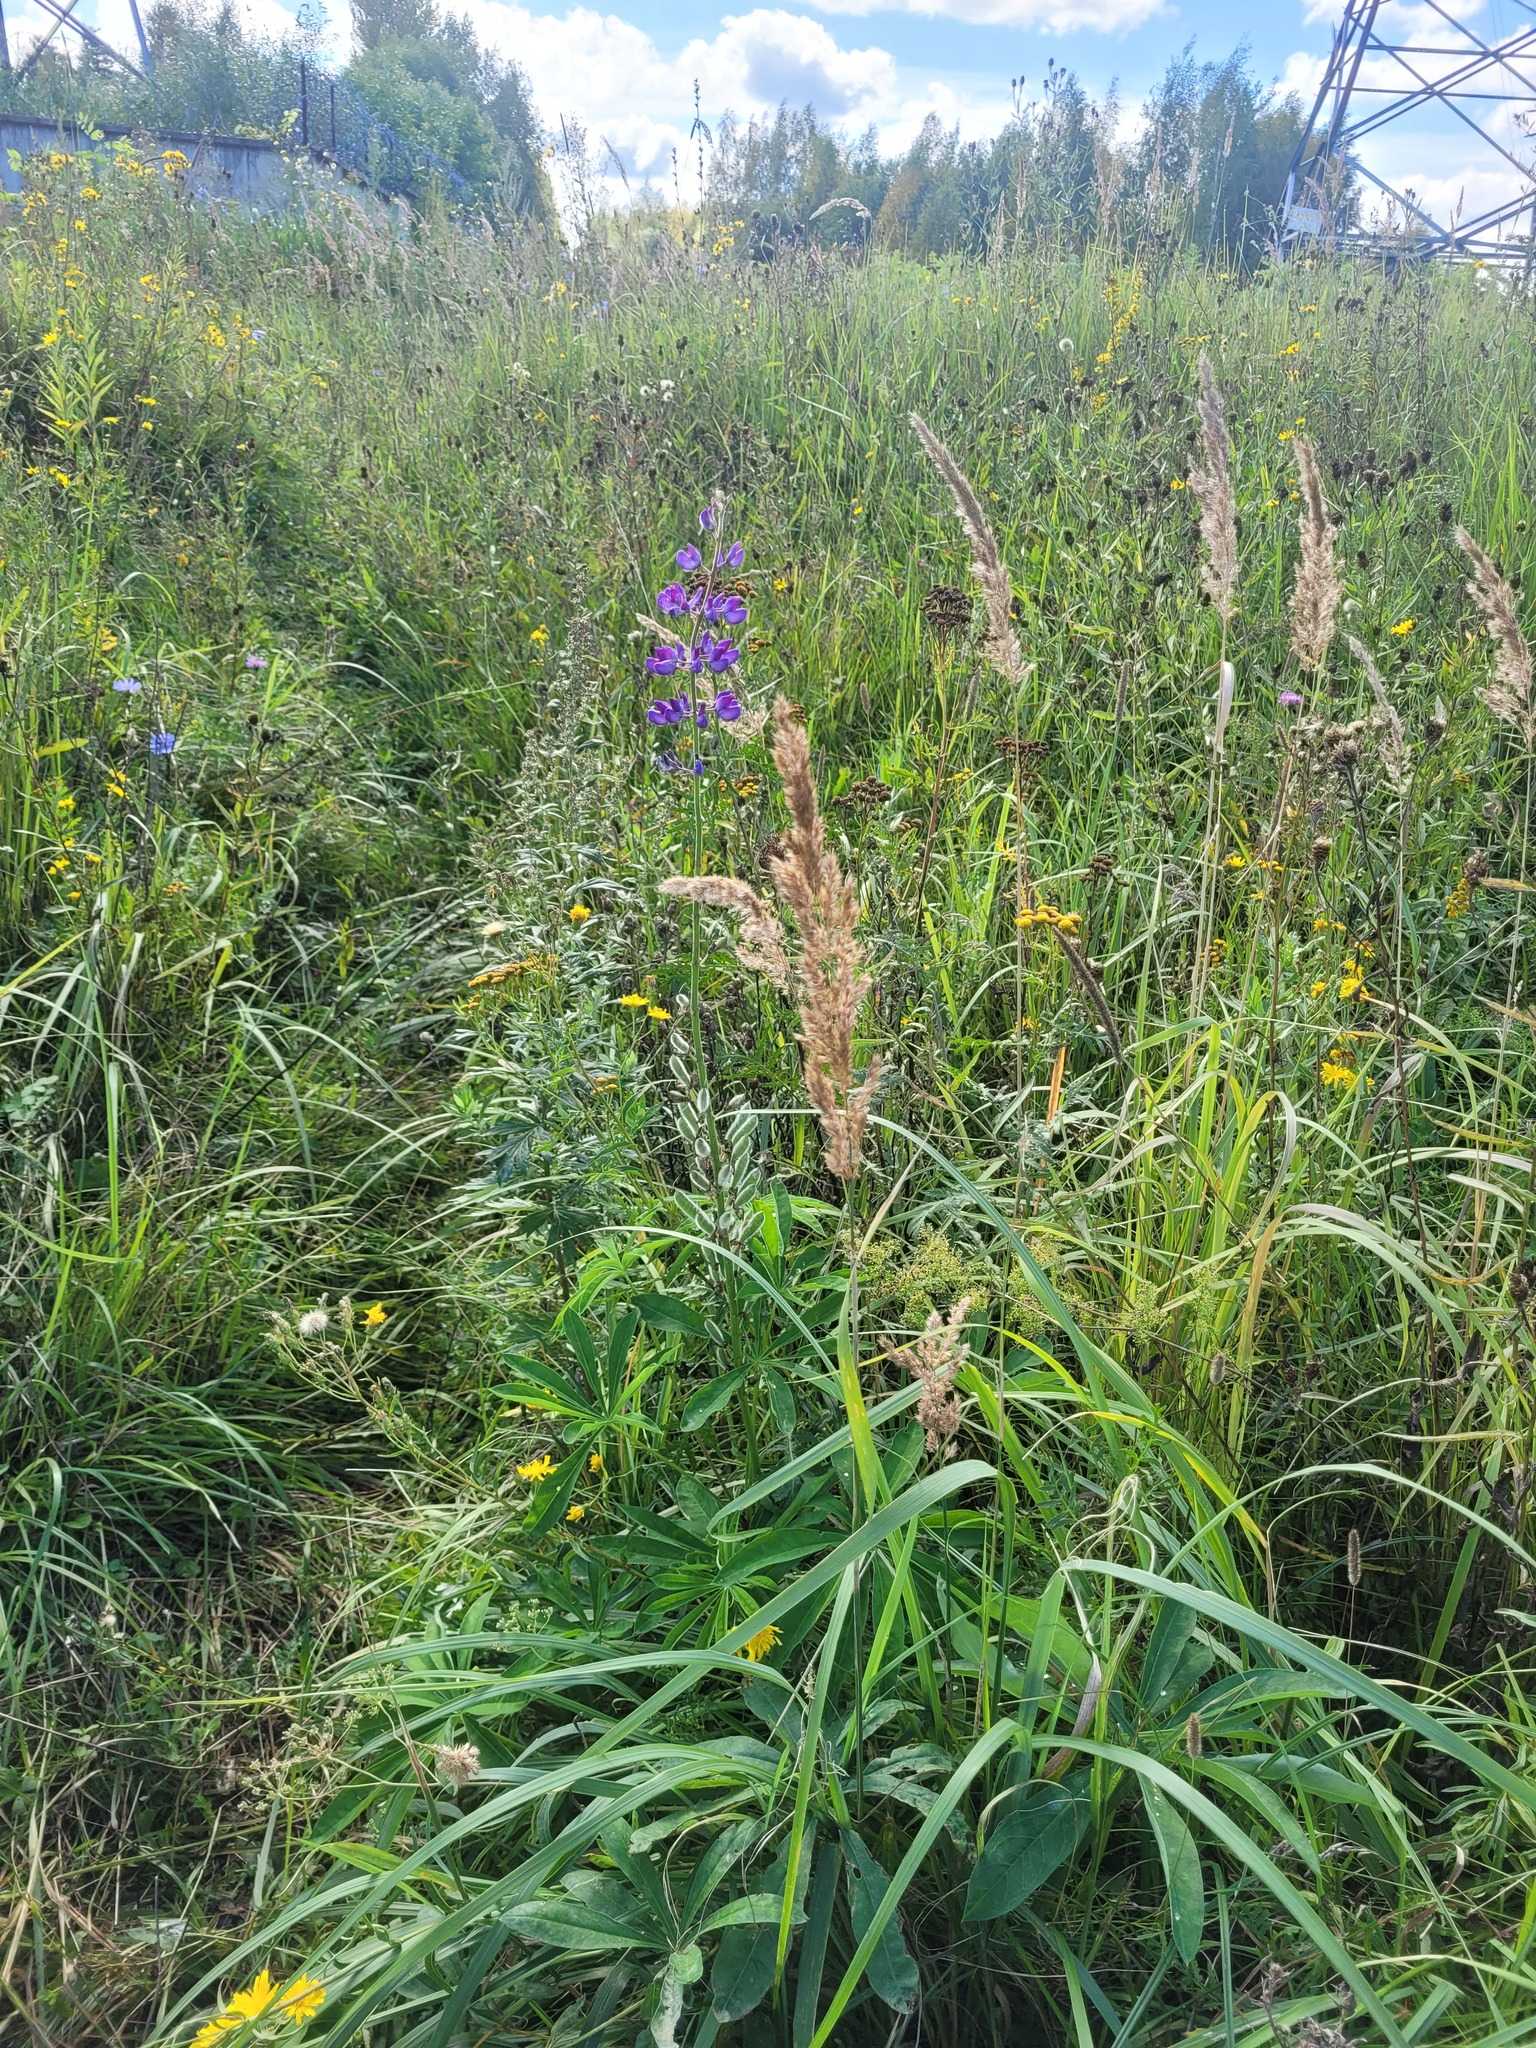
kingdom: Plantae
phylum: Tracheophyta
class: Liliopsida
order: Poales
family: Poaceae
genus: Calamagrostis
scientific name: Calamagrostis epigejos
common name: Wood small-reed
